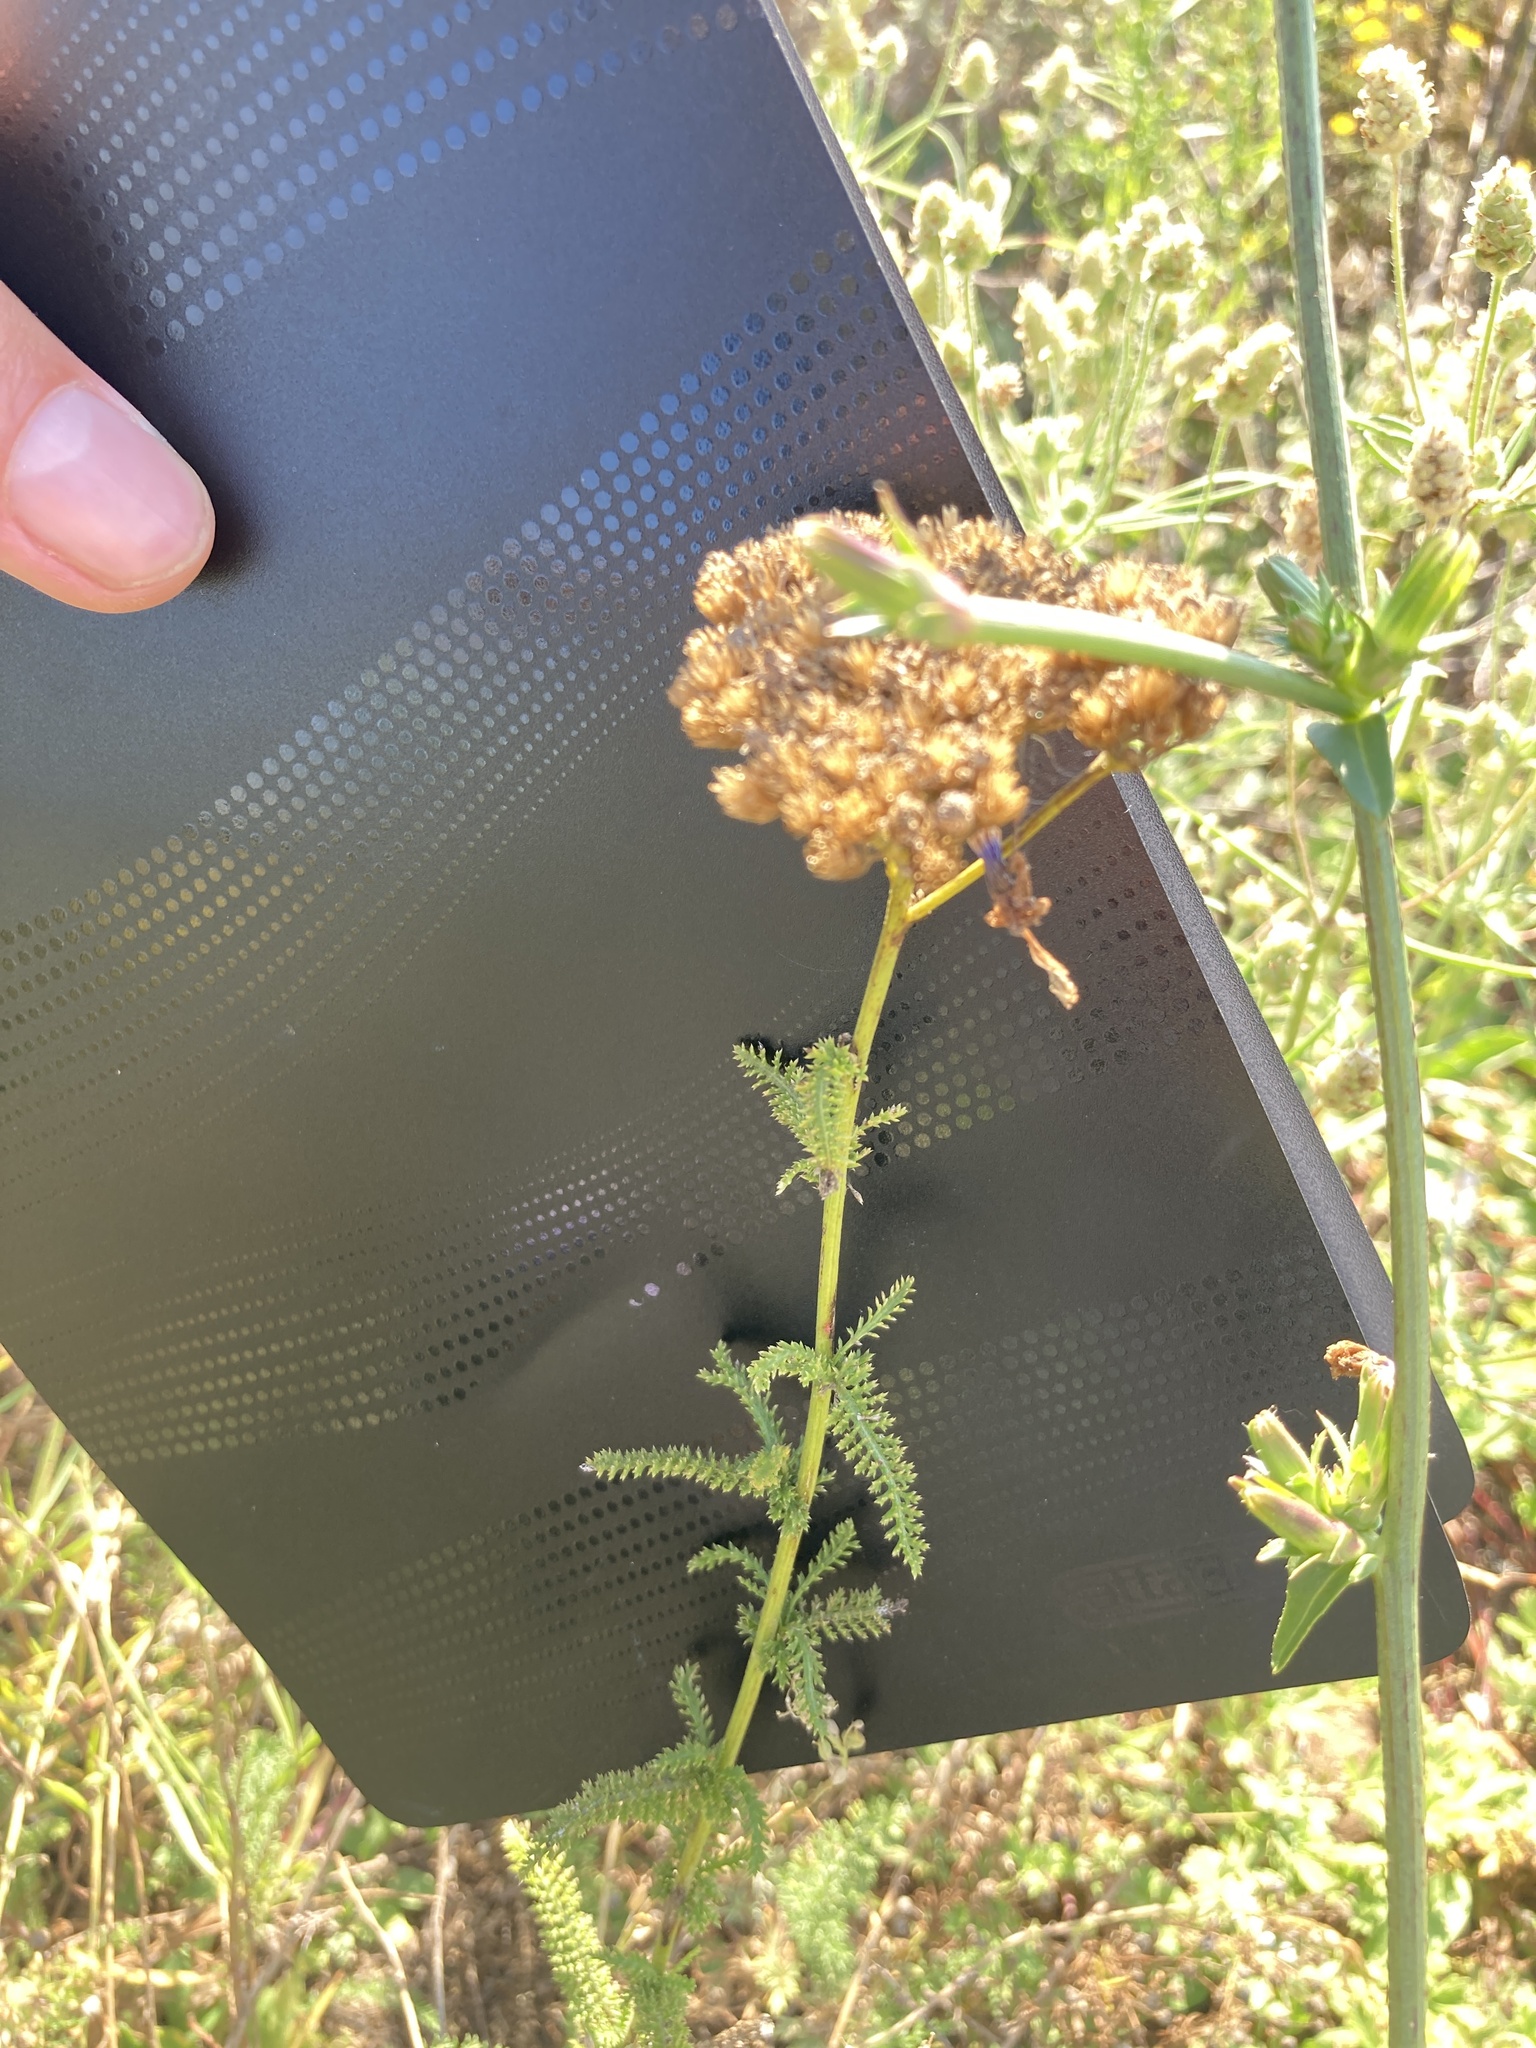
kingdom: Plantae
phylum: Tracheophyta
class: Magnoliopsida
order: Asterales
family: Asteraceae
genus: Achillea
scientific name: Achillea setacea
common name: Bristly yarrow
